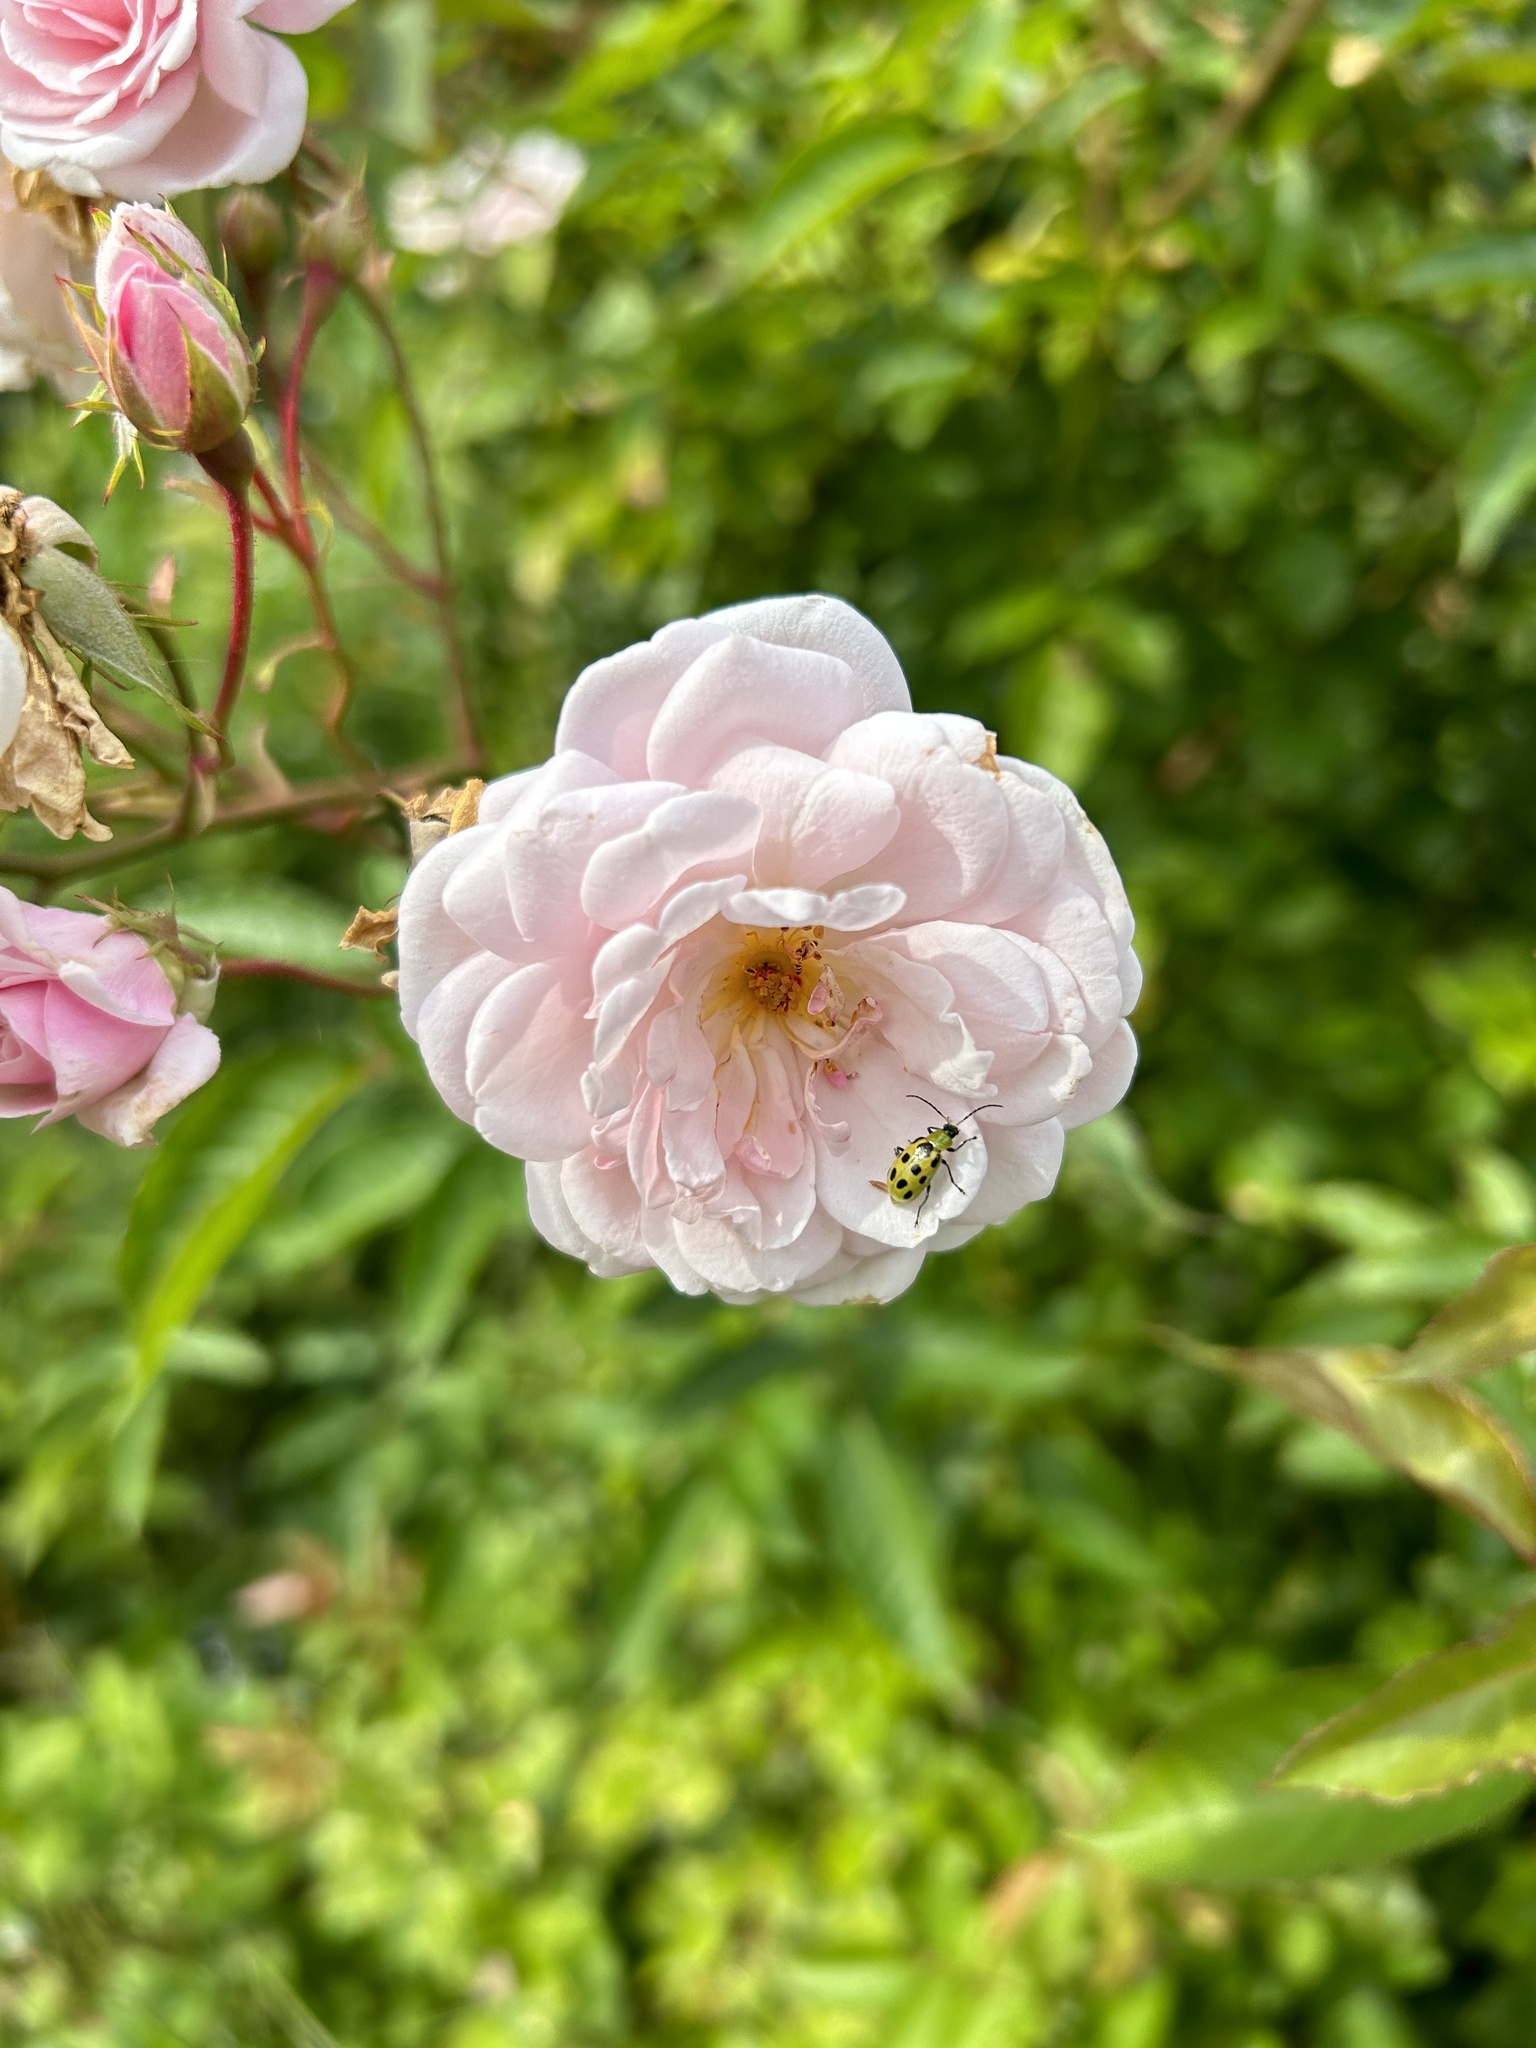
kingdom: Animalia
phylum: Arthropoda
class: Insecta
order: Coleoptera
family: Chrysomelidae
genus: Diabrotica
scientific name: Diabrotica undecimpunctata
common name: Spotted cucumber beetle
